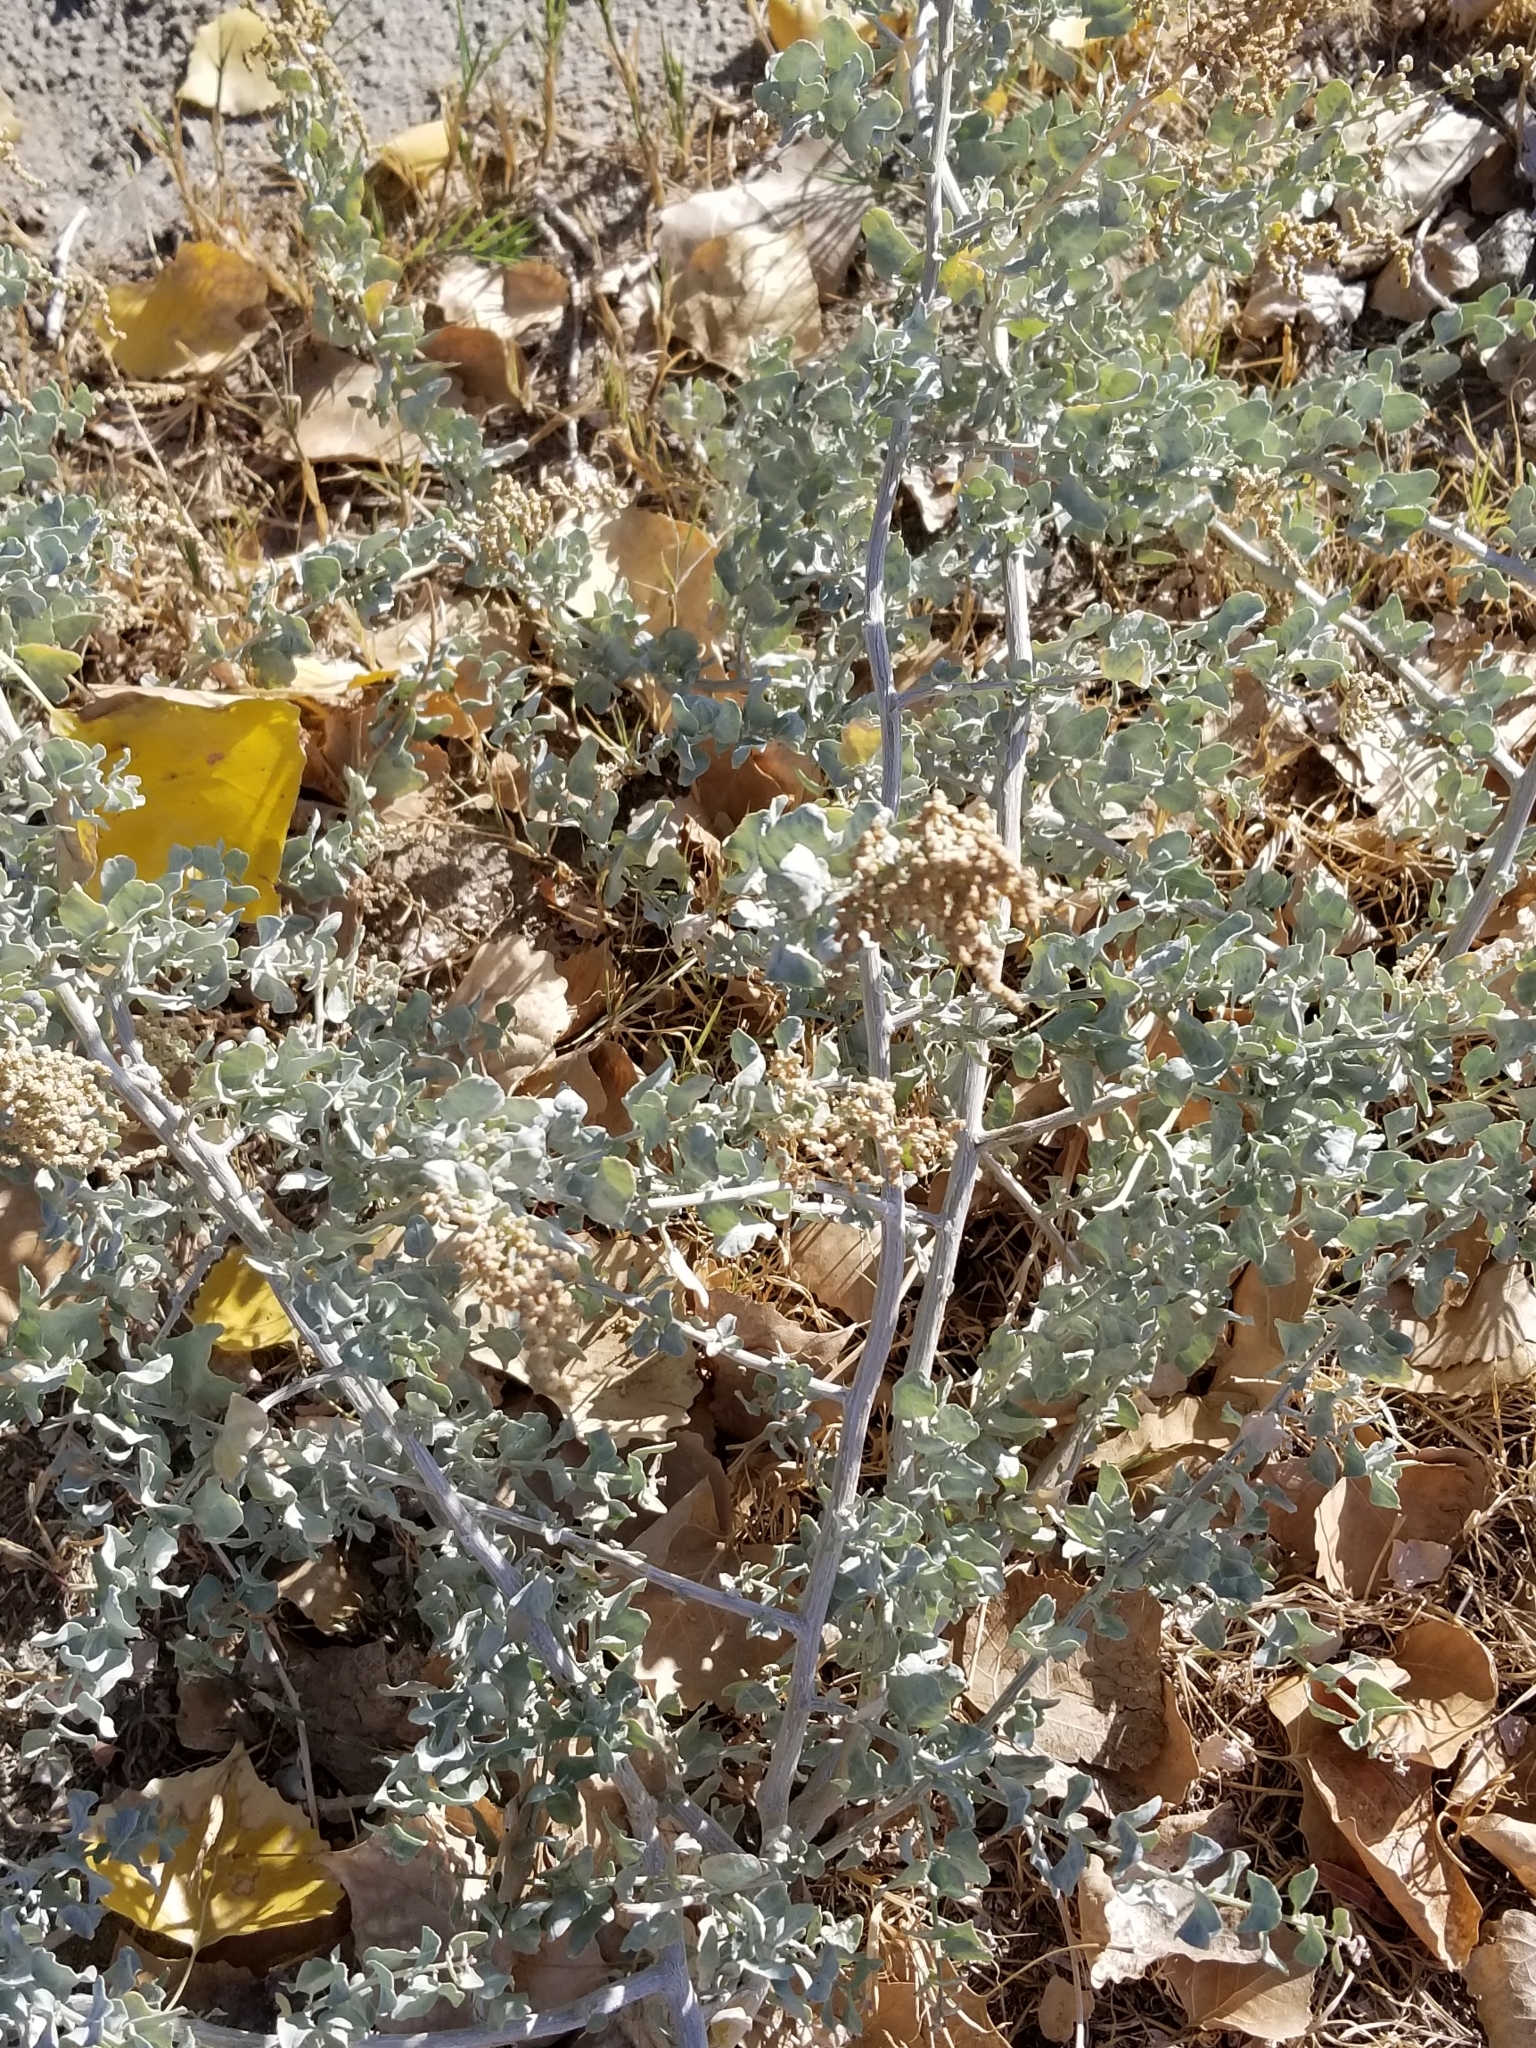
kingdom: Plantae
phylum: Tracheophyta
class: Magnoliopsida
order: Caryophyllales
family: Amaranthaceae
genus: Atriplex
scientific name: Atriplex lentiformis
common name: Big saltbush
